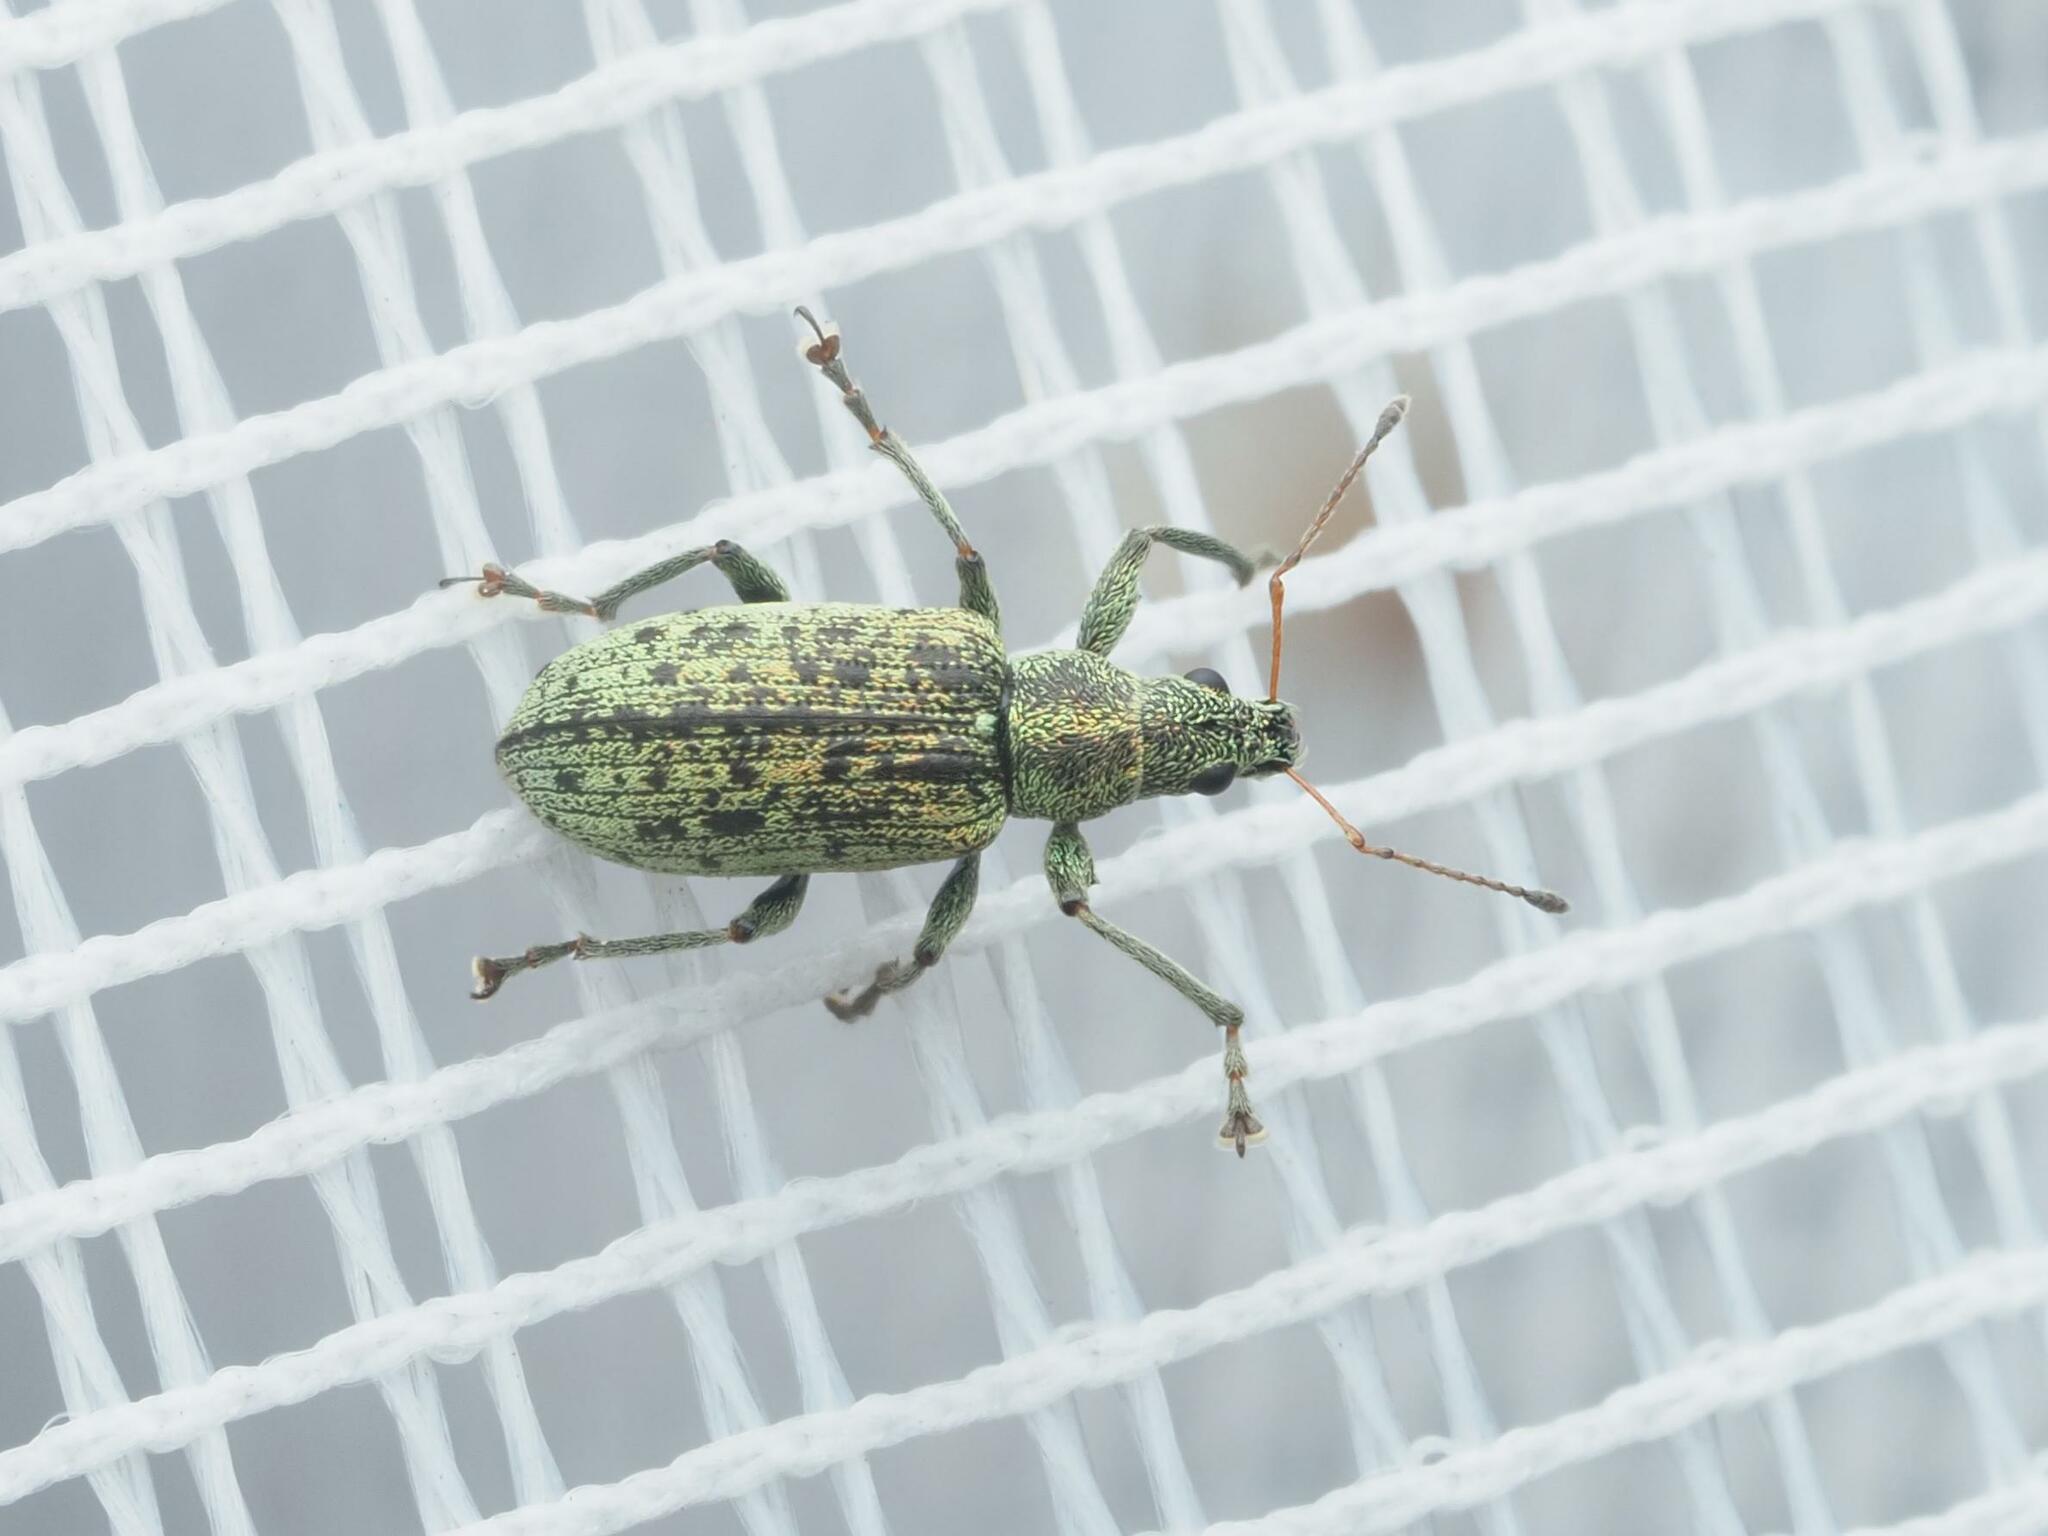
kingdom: Animalia
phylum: Arthropoda
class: Insecta
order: Coleoptera
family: Curculionidae
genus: Polydrusus
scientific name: Polydrusus cervinus
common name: Weevil
